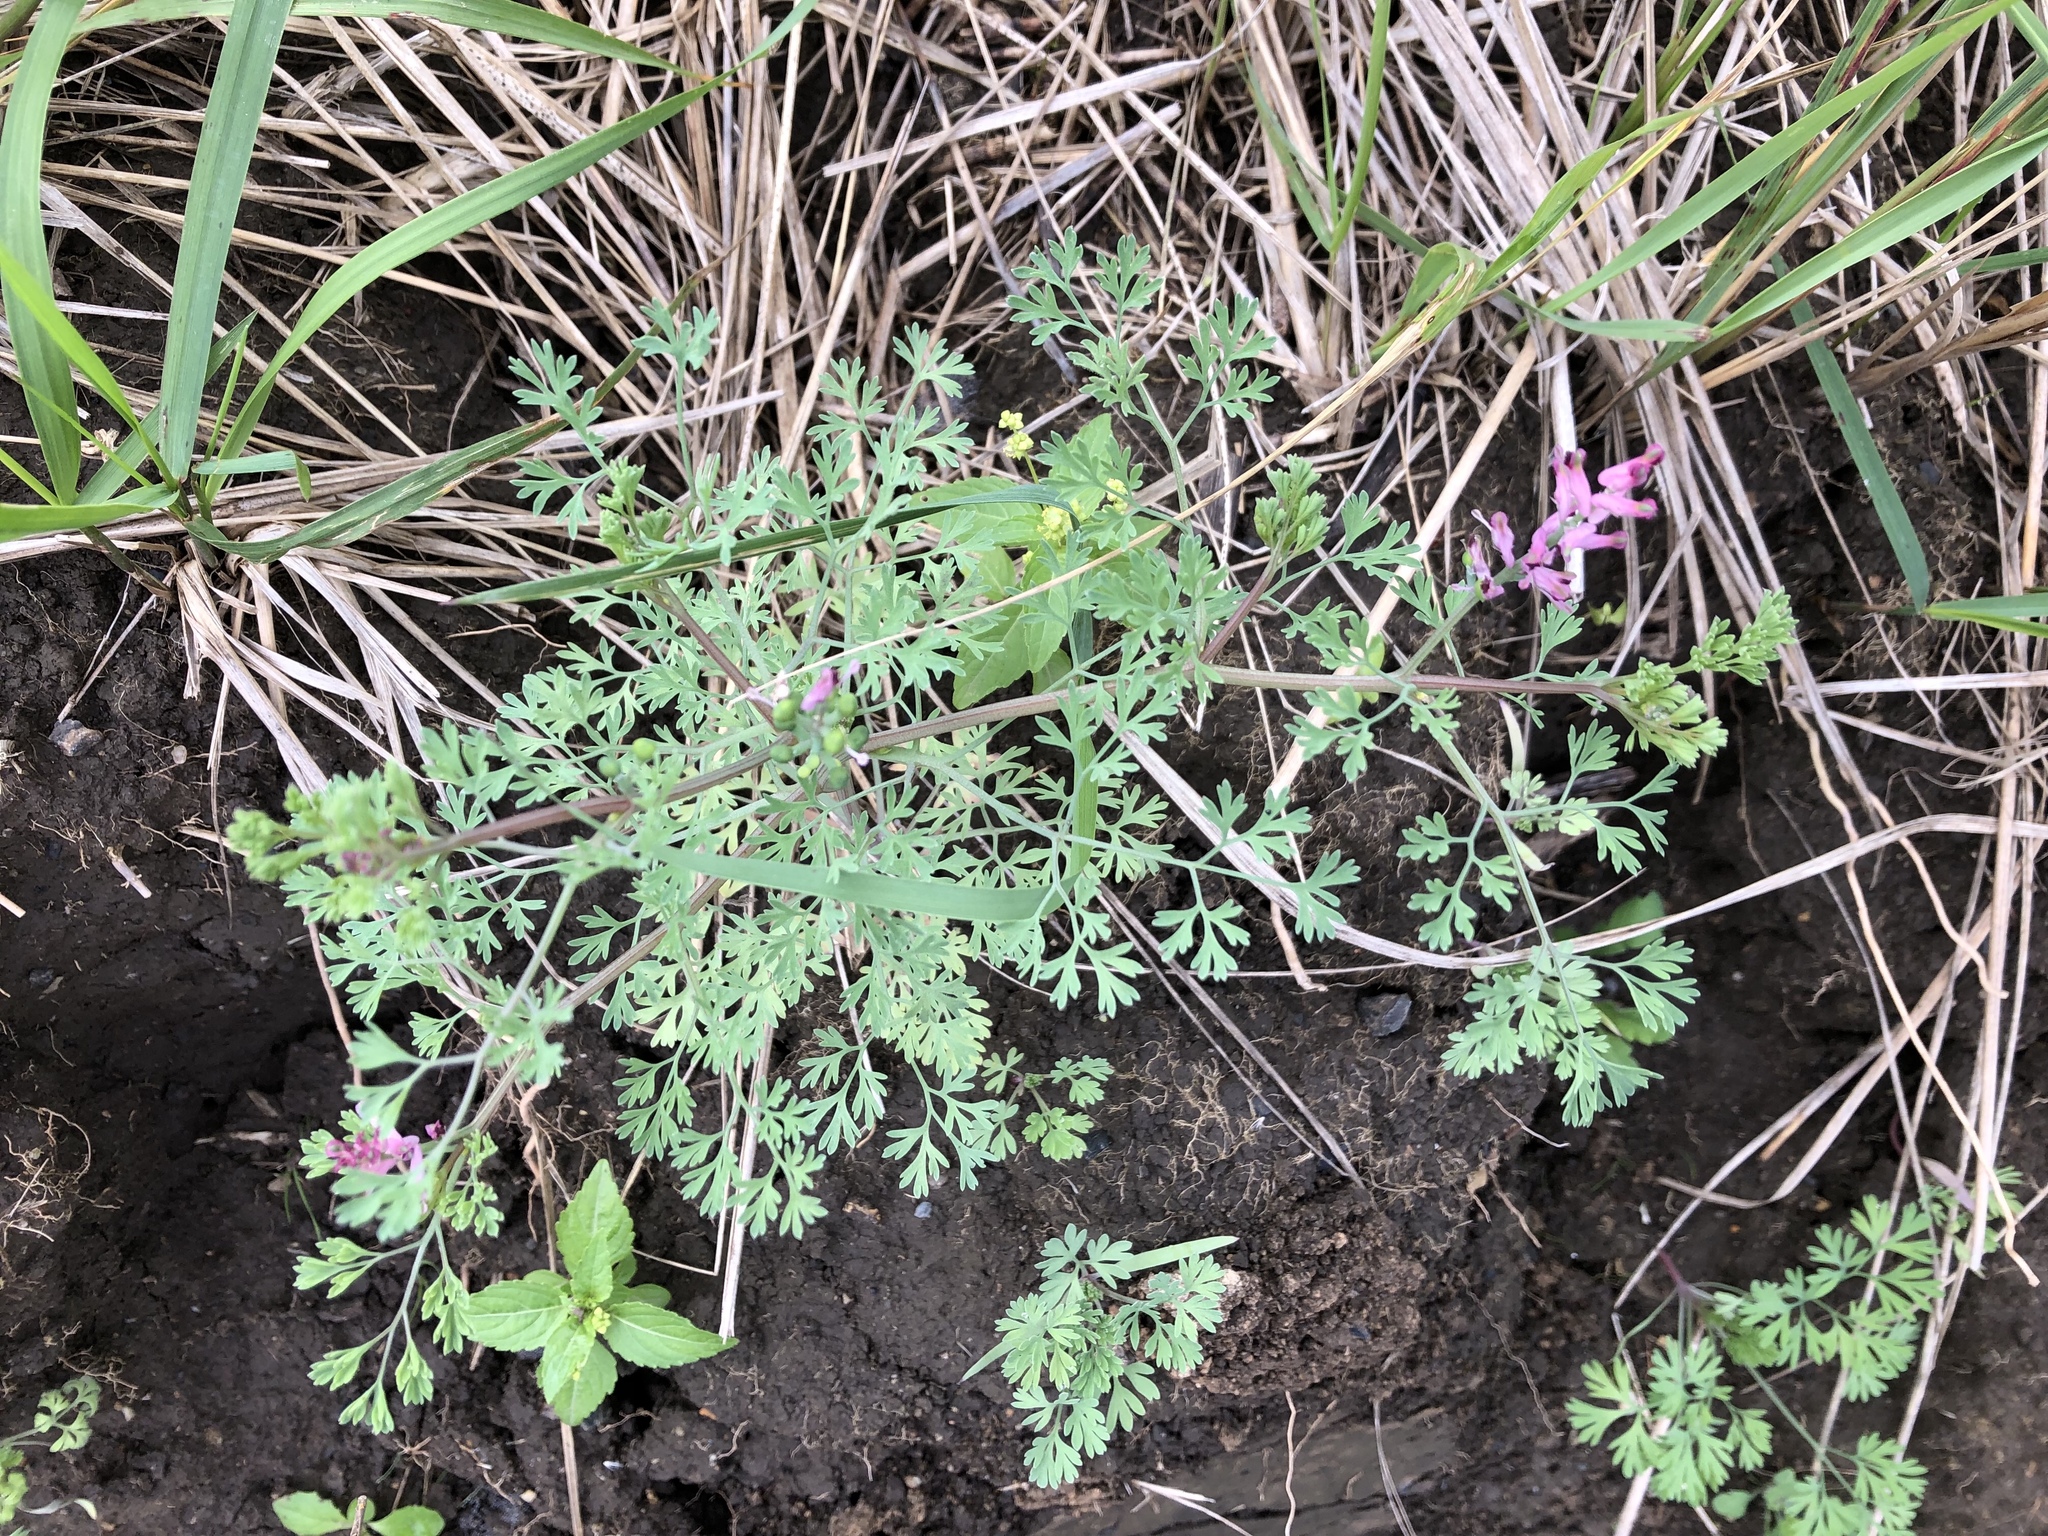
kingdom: Plantae
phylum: Tracheophyta
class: Magnoliopsida
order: Ranunculales
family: Papaveraceae
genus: Fumaria
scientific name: Fumaria officinalis
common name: Common fumitory
